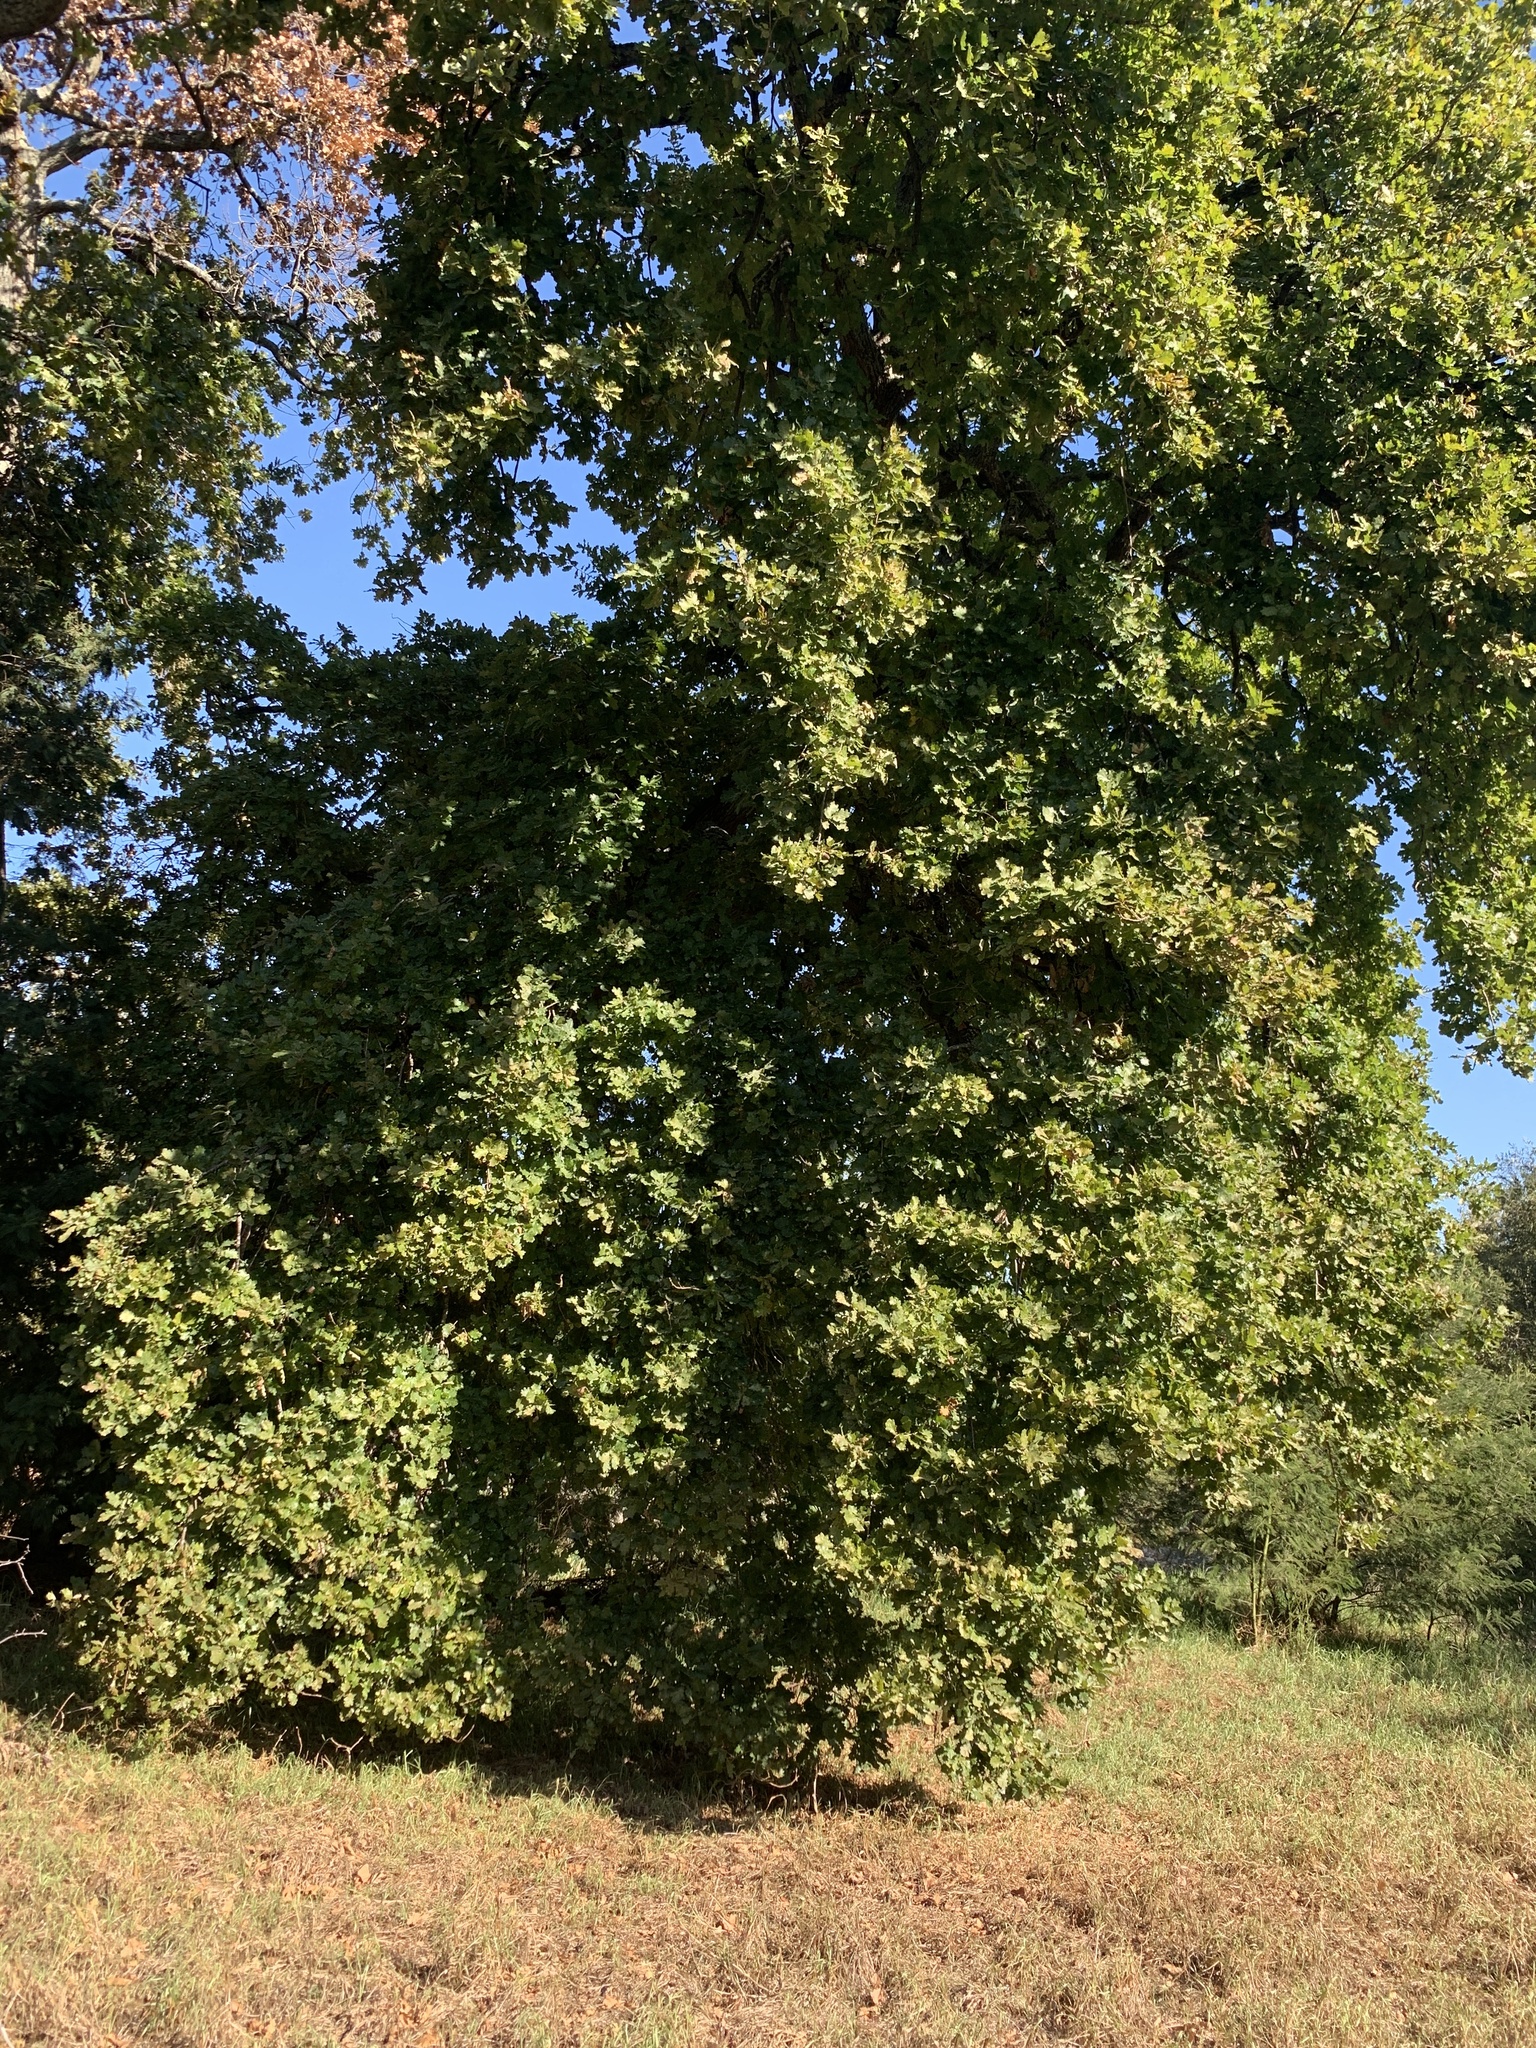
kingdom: Plantae
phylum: Tracheophyta
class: Magnoliopsida
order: Fagales
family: Fagaceae
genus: Quercus
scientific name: Quercus robur
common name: Pedunculate oak
